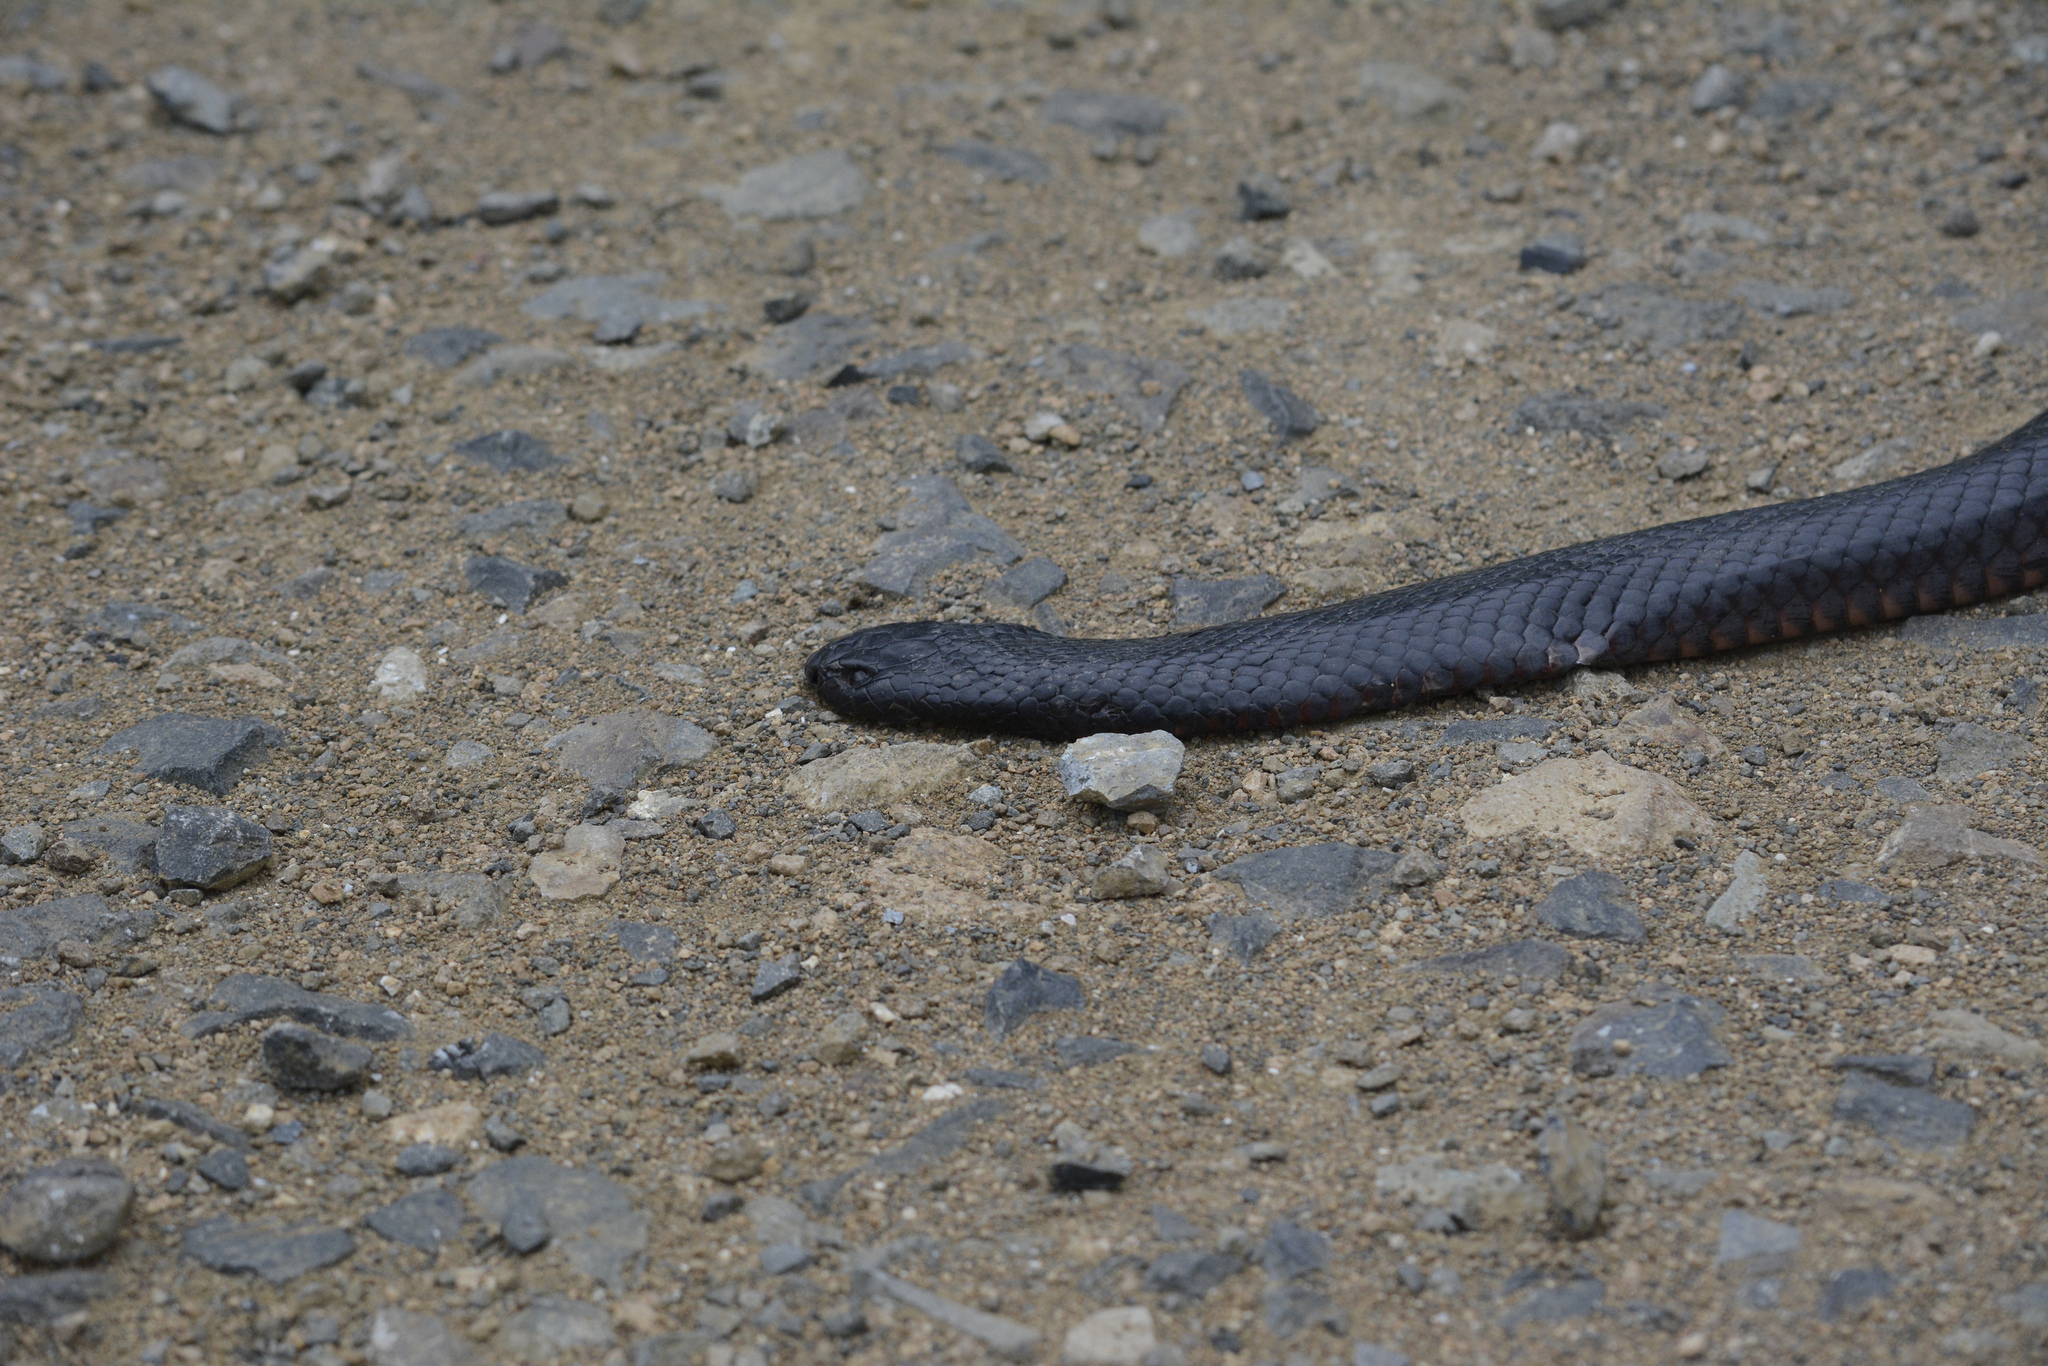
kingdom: Animalia
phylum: Chordata
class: Squamata
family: Elapidae
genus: Pseudechis
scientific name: Pseudechis porphyriacus
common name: Australian black snake
